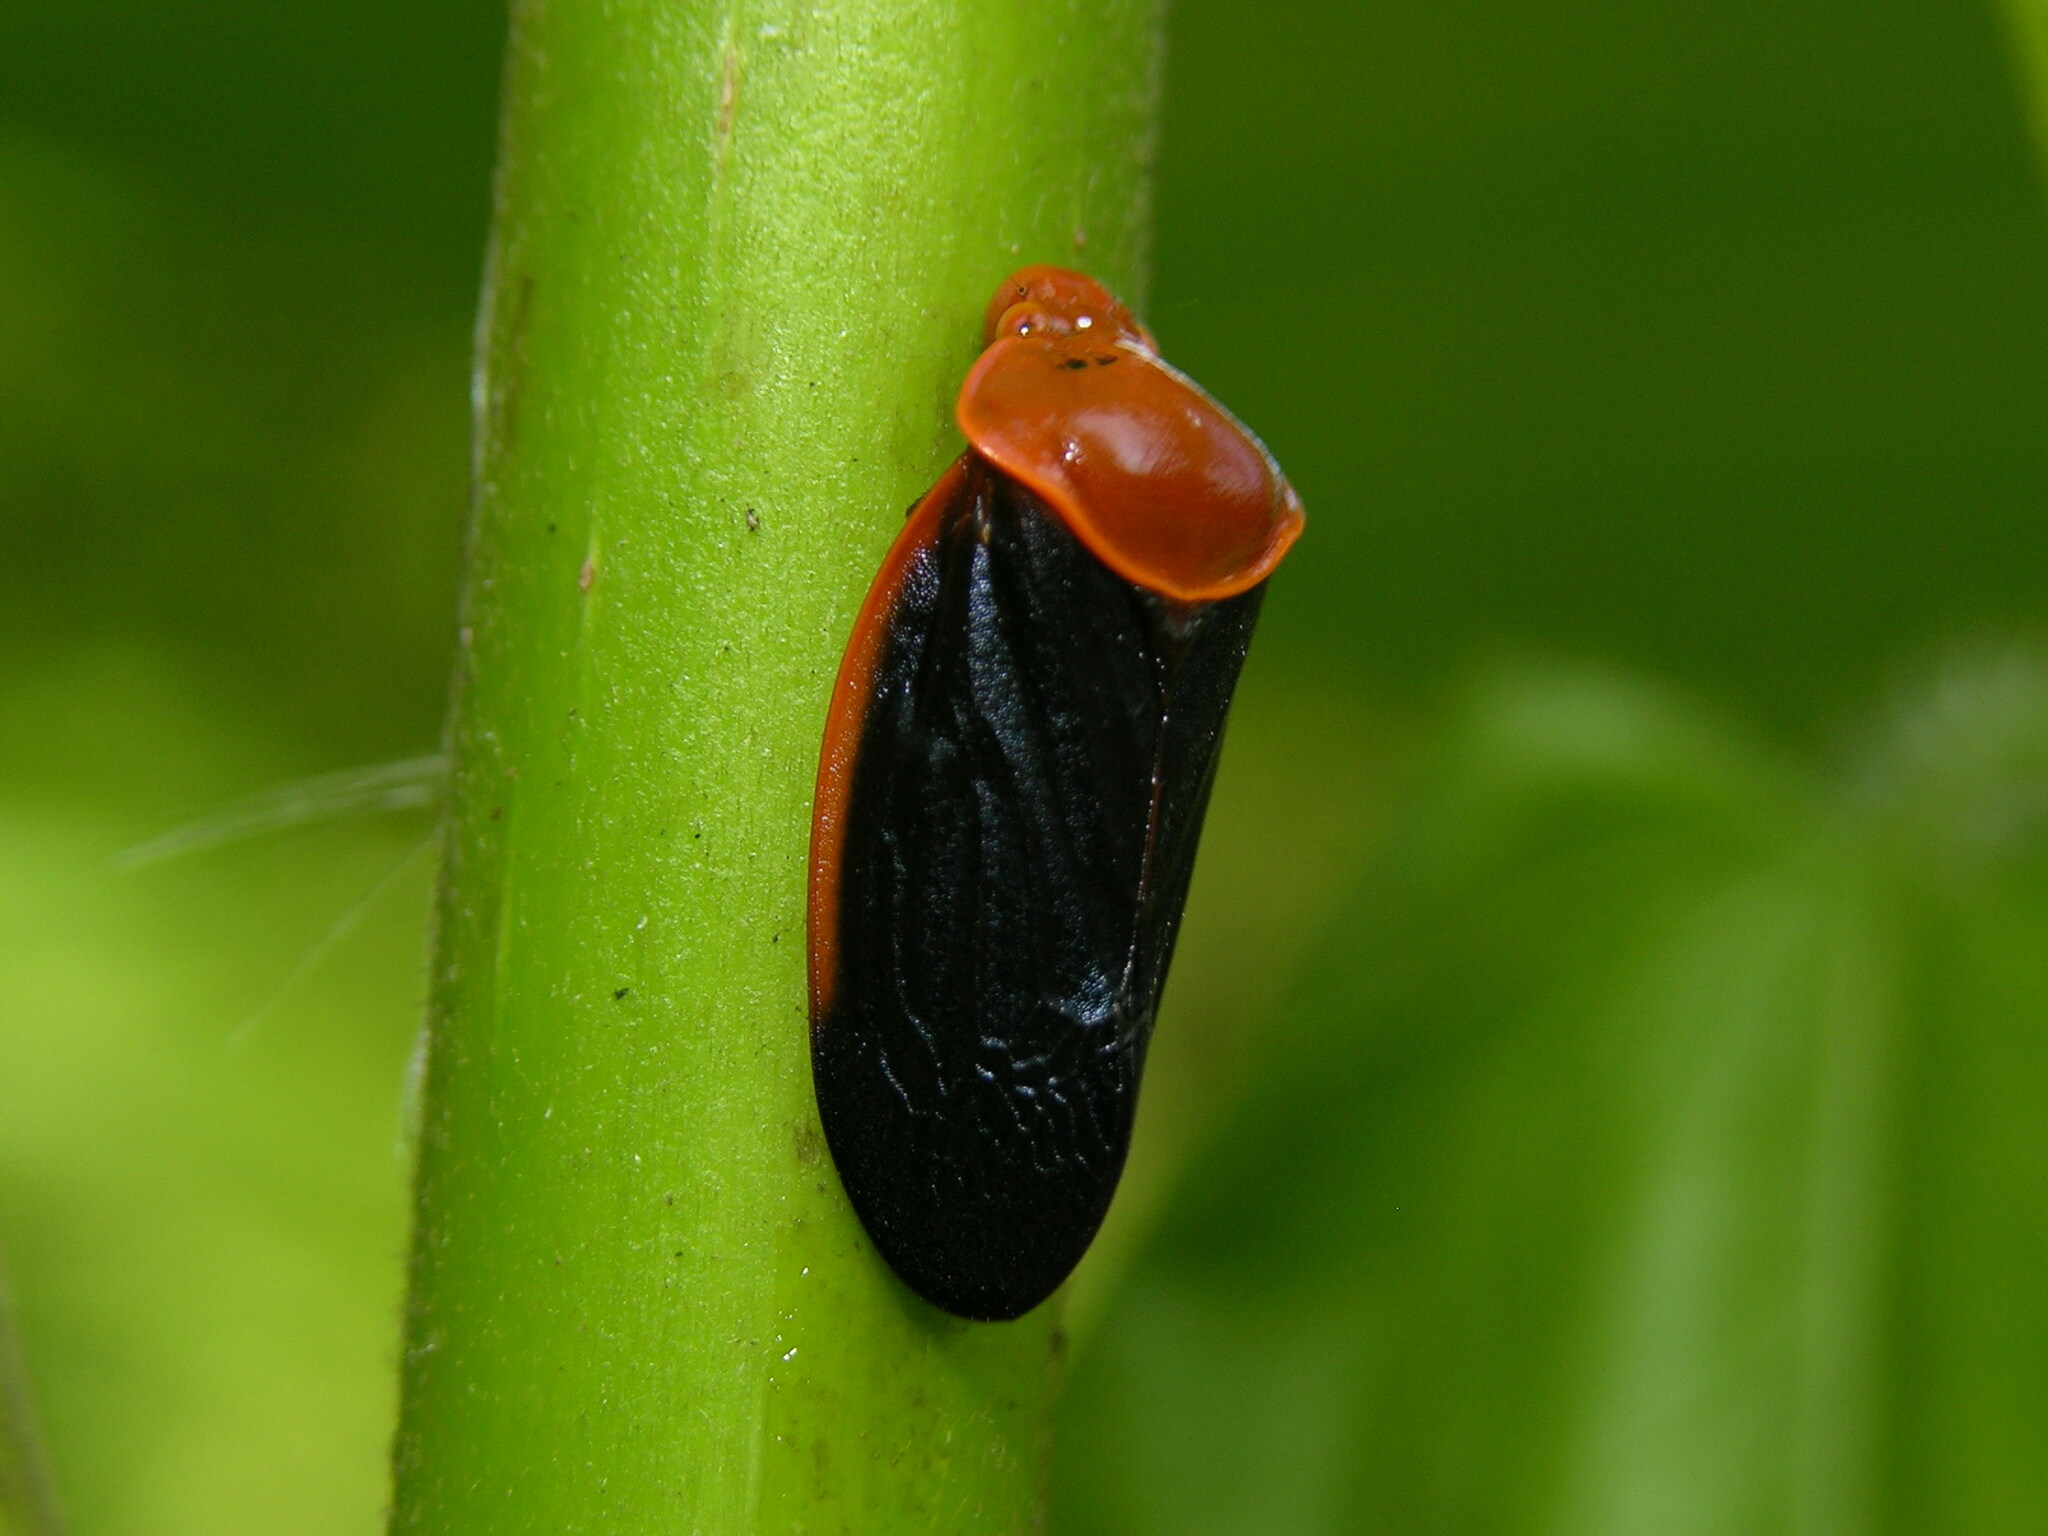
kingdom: Animalia
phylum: Arthropoda
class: Insecta
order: Hemiptera
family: Cercopidae
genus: Leptataspis
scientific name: Leptataspis fuscipennis
